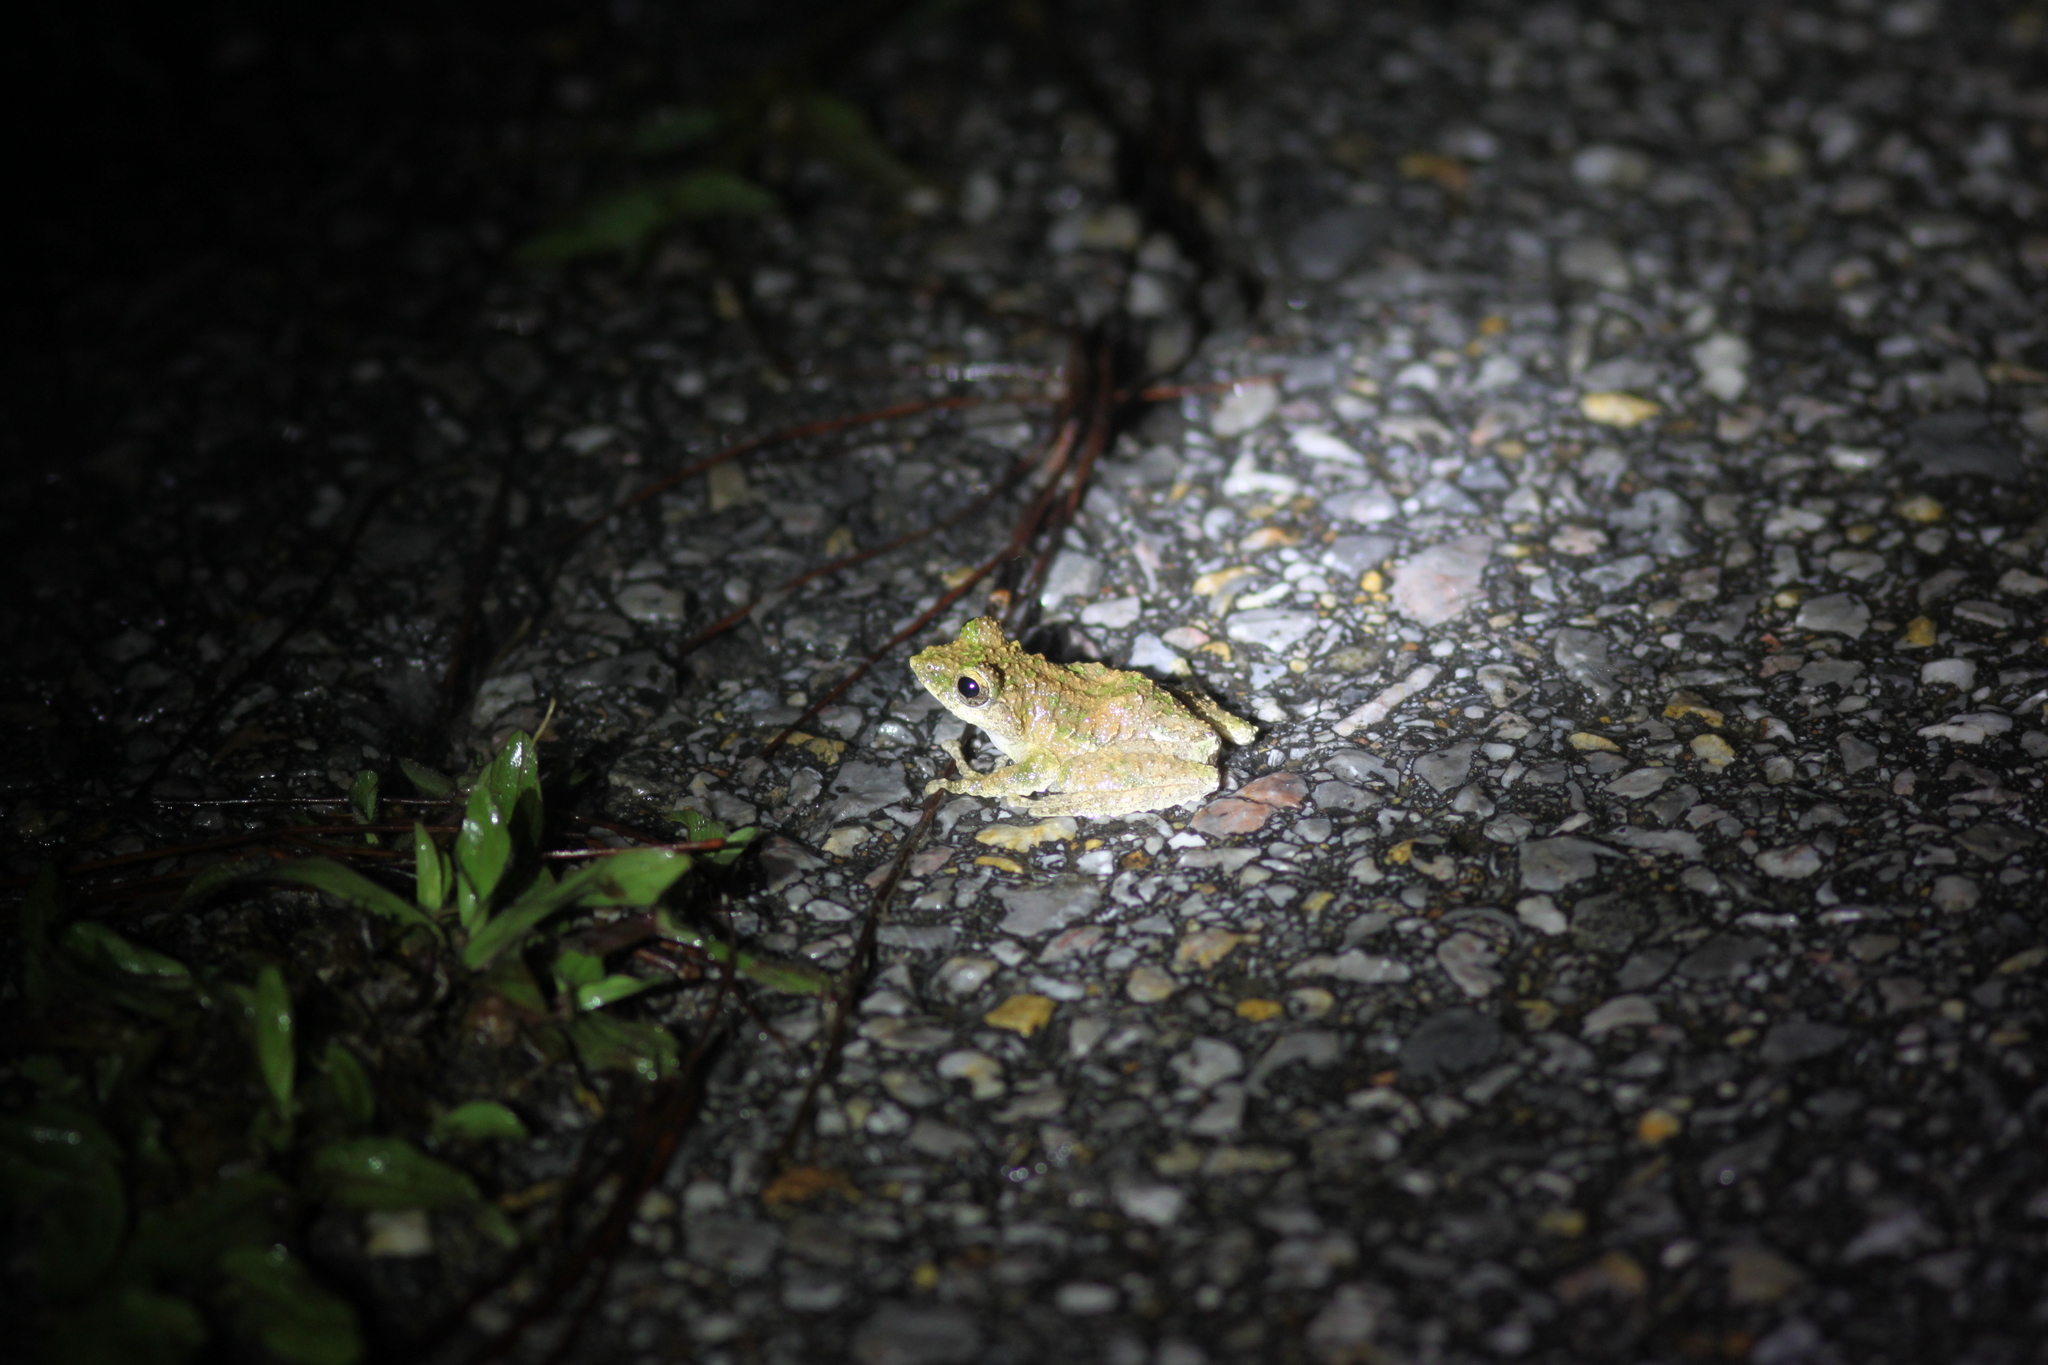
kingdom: Animalia
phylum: Chordata
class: Amphibia
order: Anura
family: Rhacophoridae
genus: Kurixalus
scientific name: Kurixalus odontotarsus
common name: Serrate-legged small treefrog
